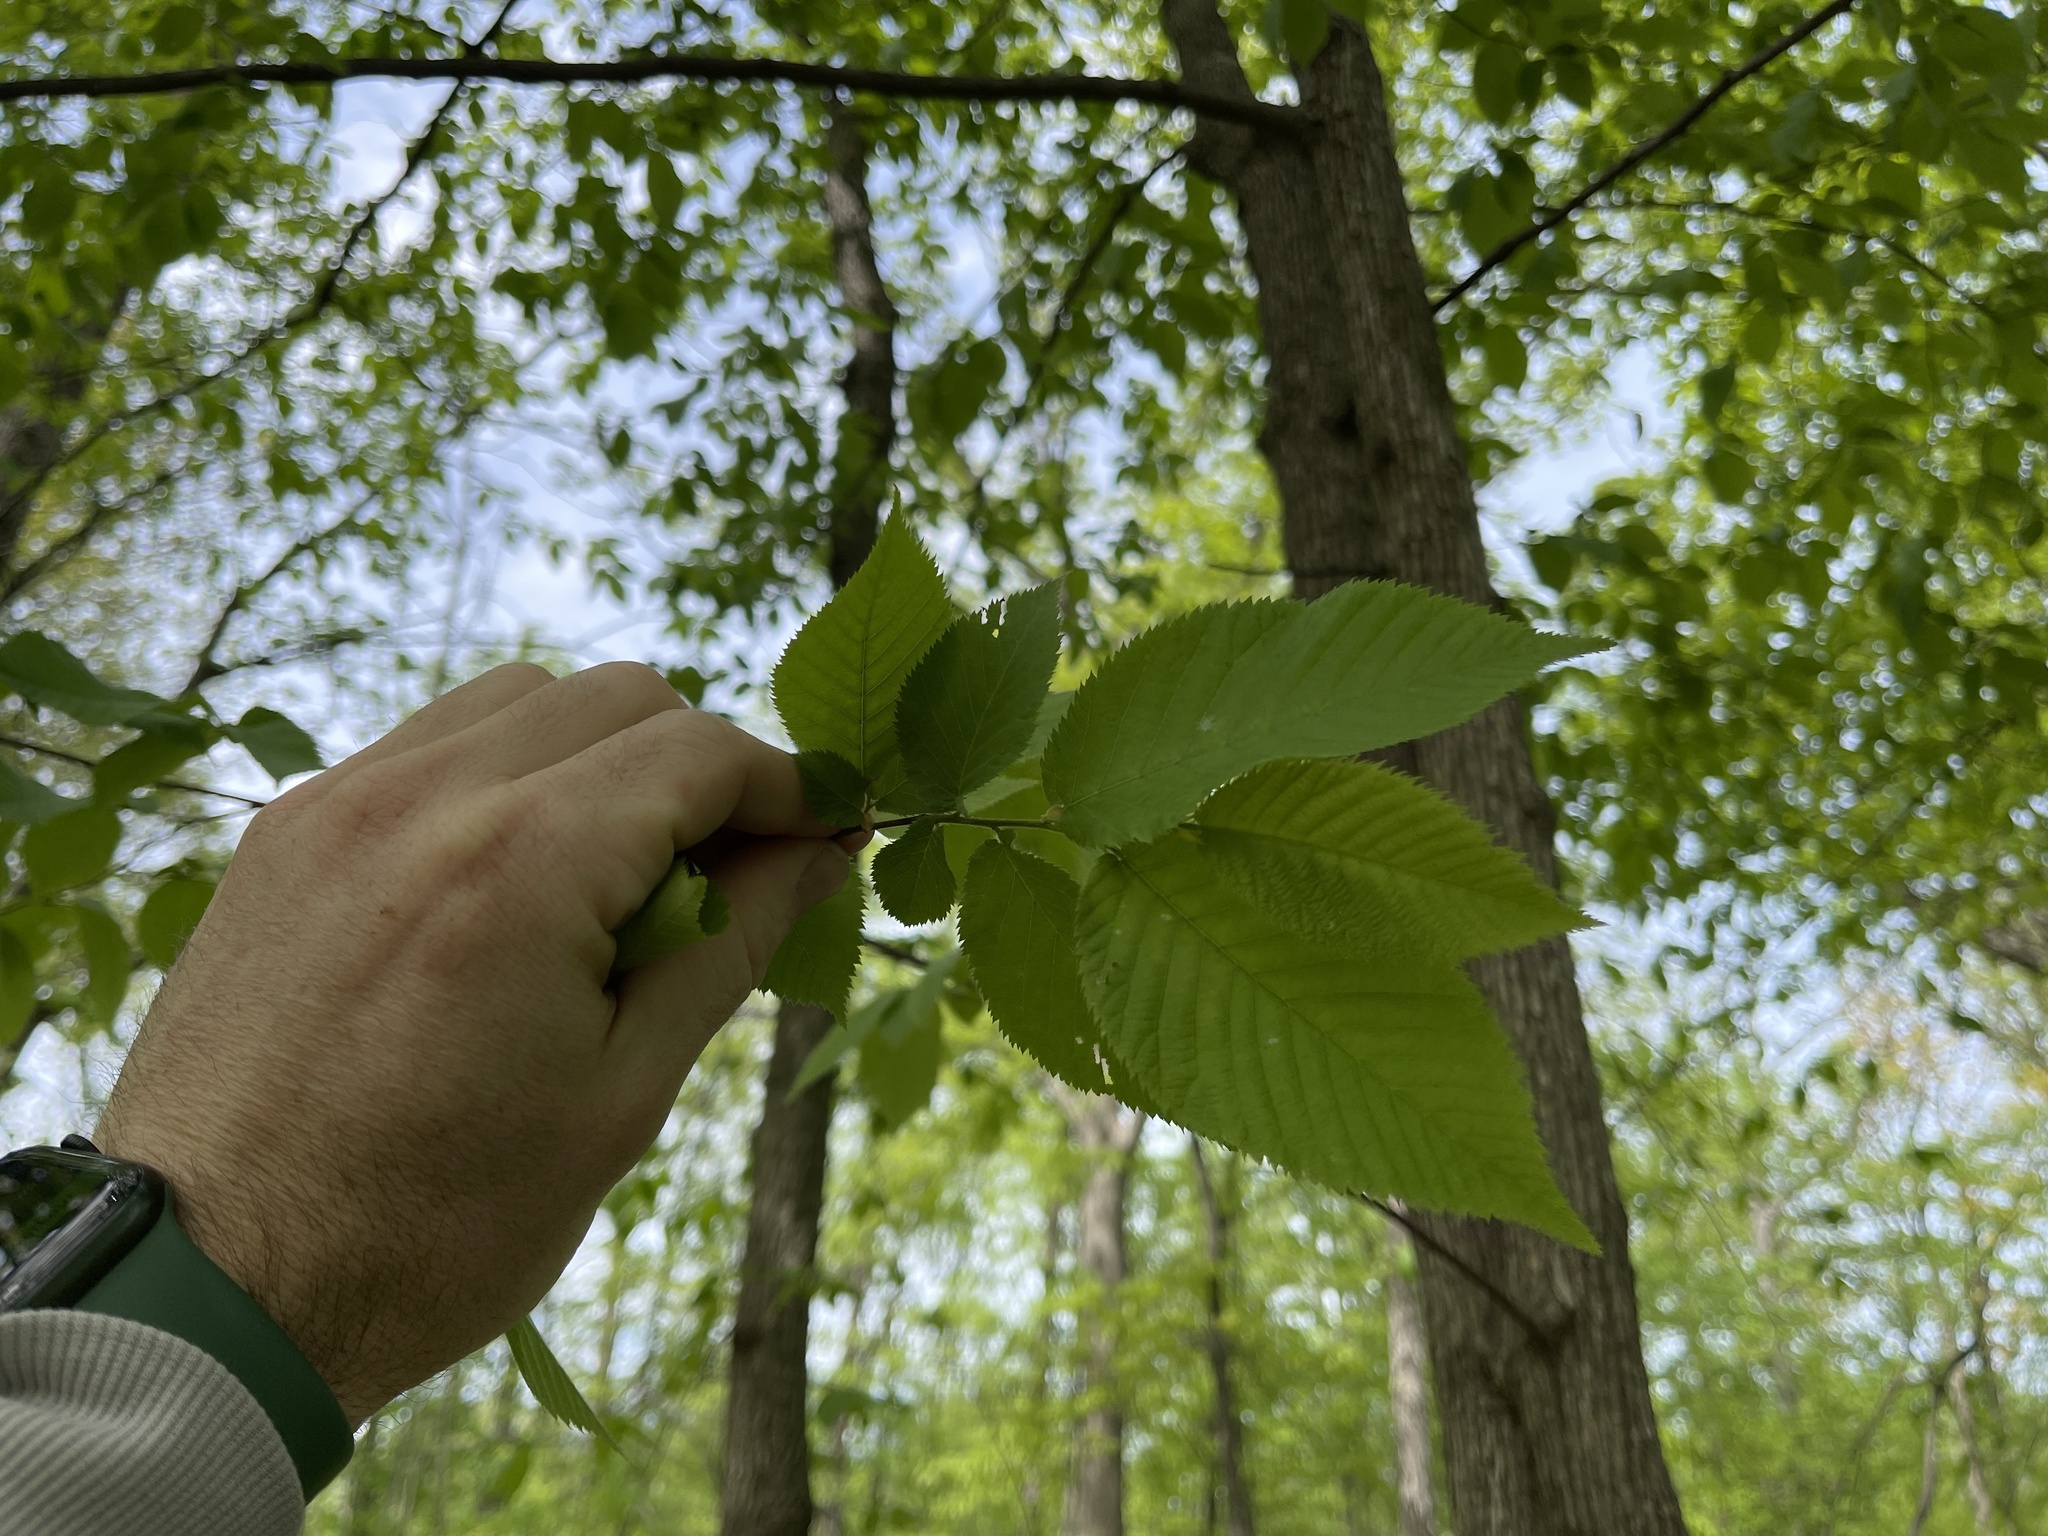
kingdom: Plantae
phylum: Tracheophyta
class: Magnoliopsida
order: Fagales
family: Betulaceae
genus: Ostrya
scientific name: Ostrya virginiana
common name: Ironwood
